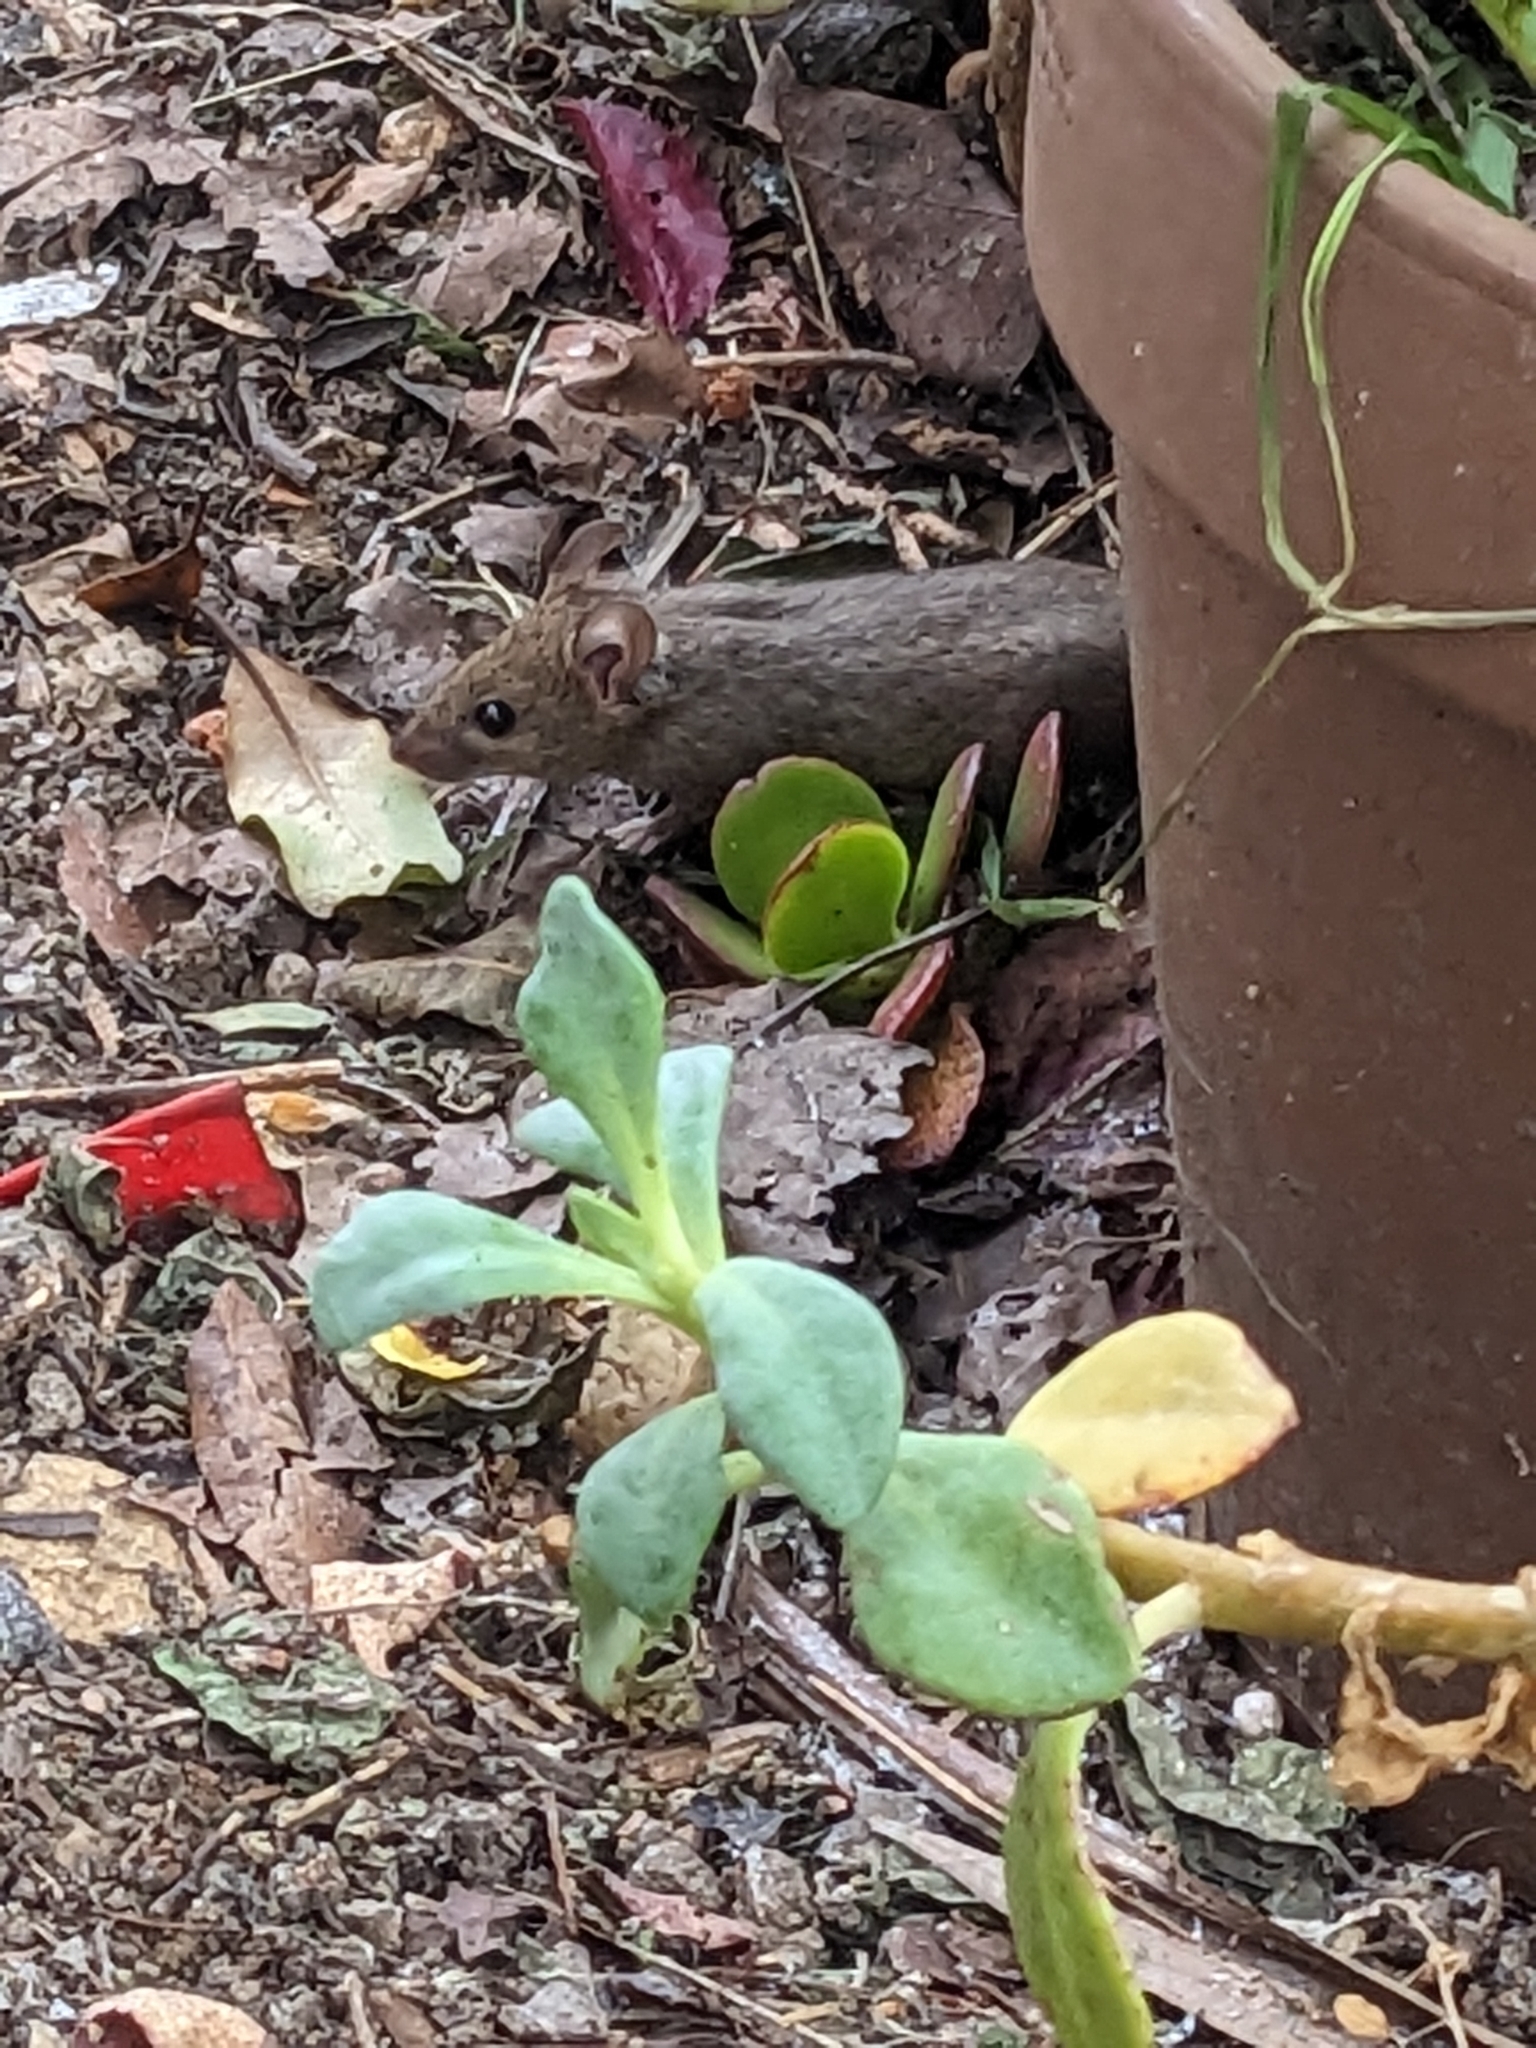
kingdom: Animalia
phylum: Chordata
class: Mammalia
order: Rodentia
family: Muridae
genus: Mus
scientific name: Mus musculus
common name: House mouse
